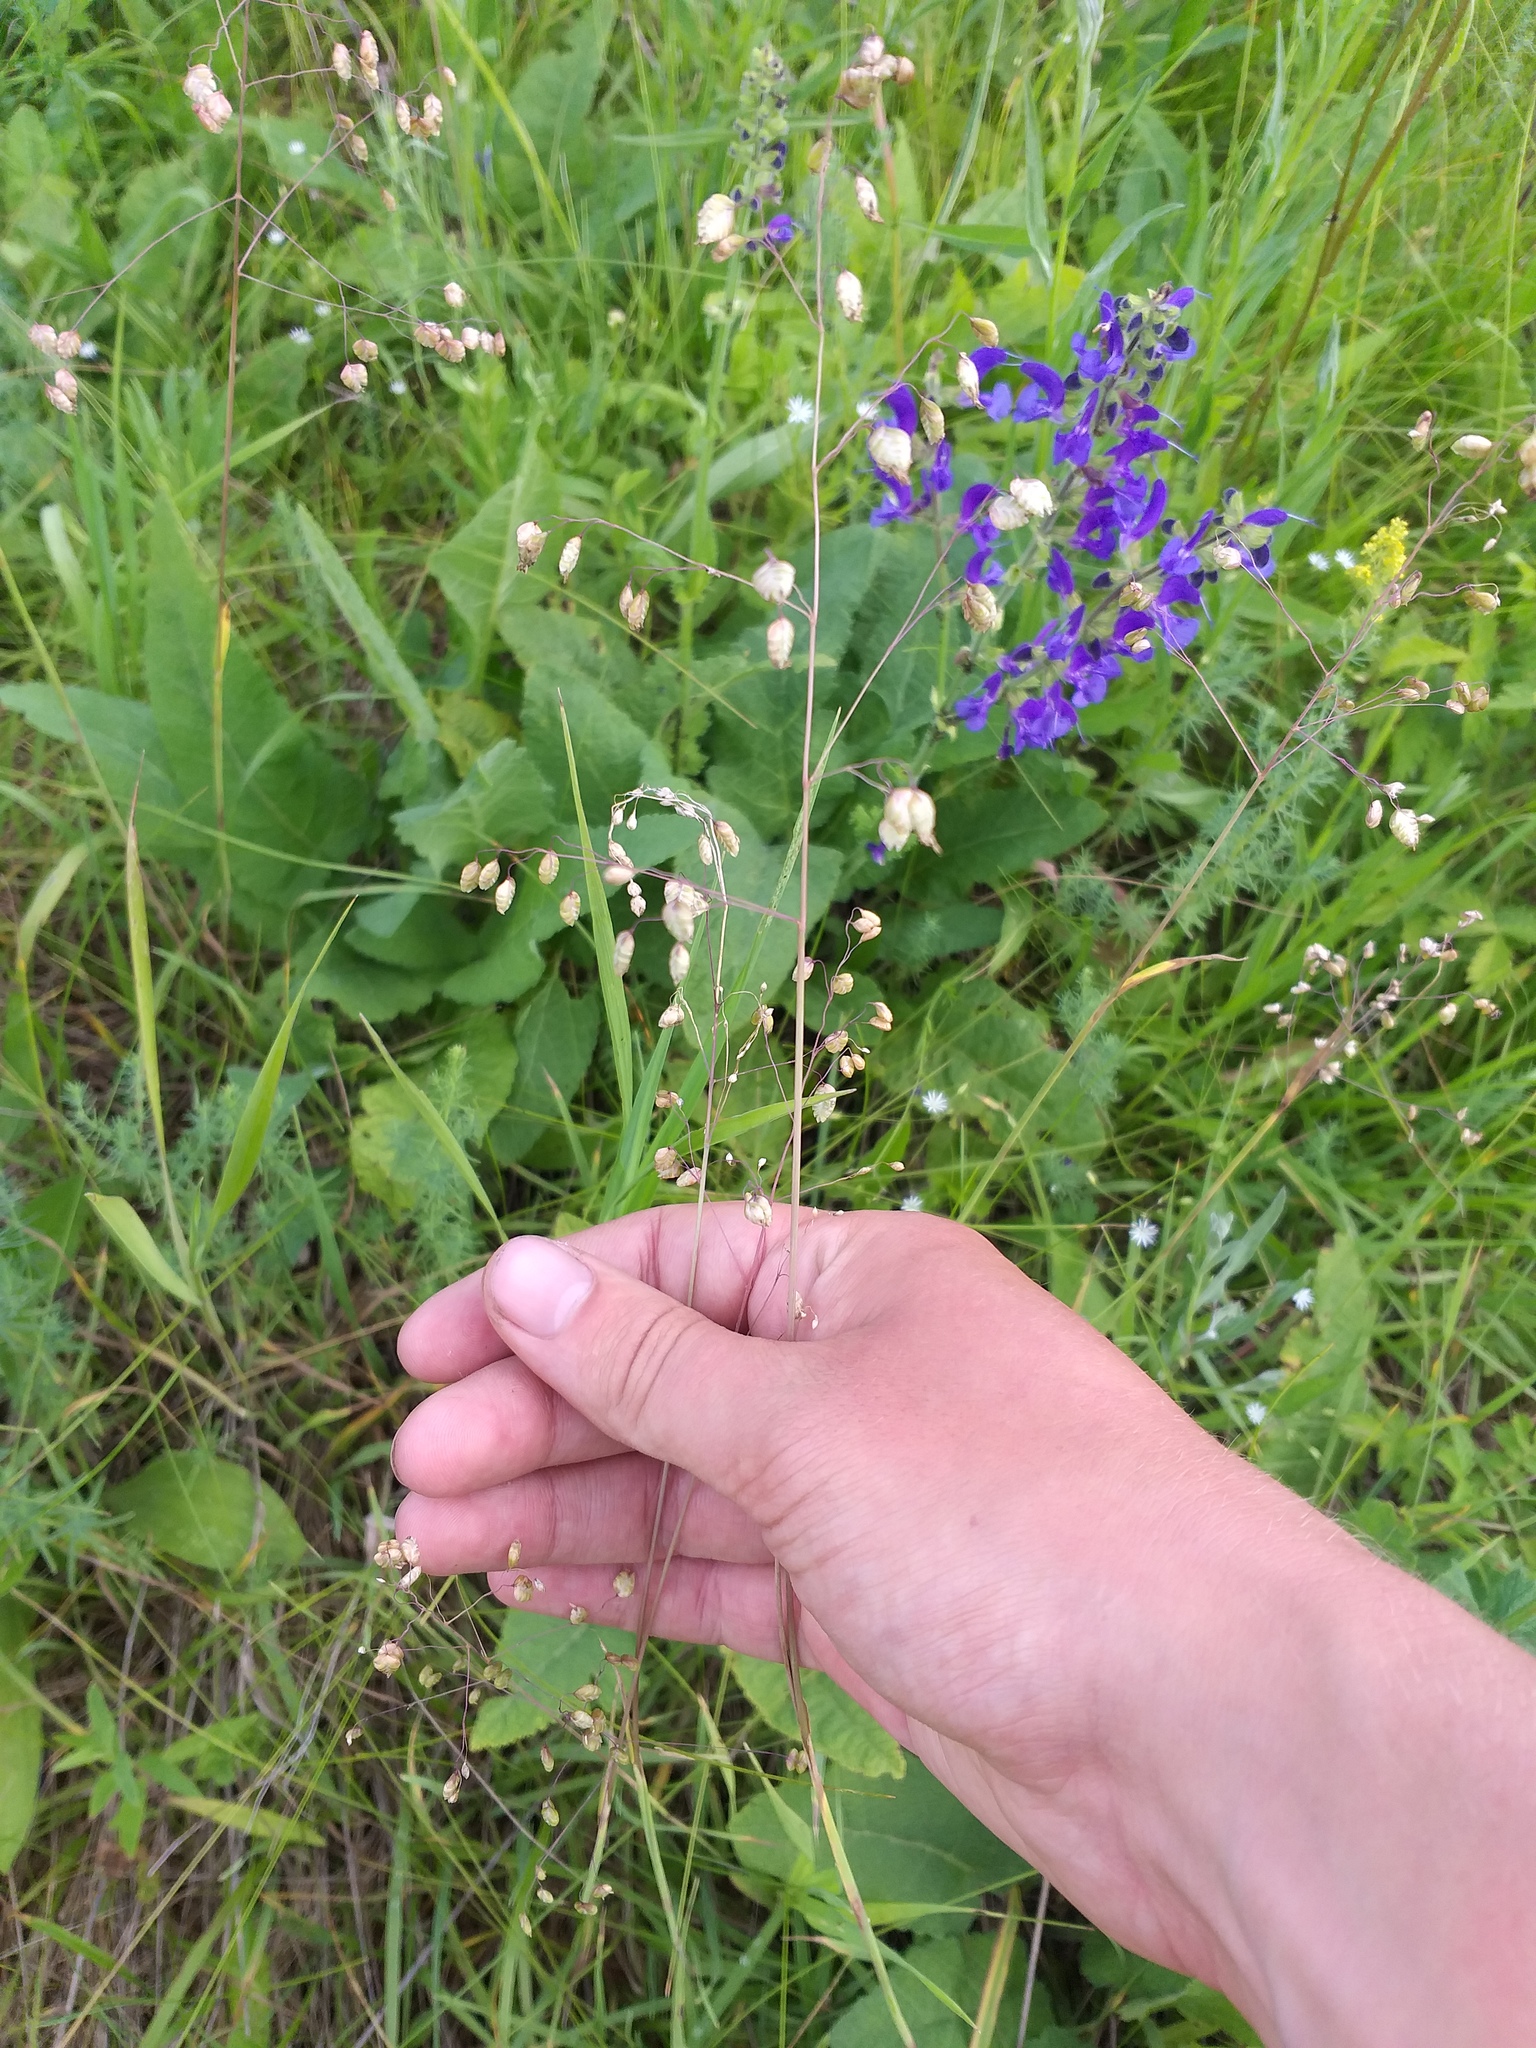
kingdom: Plantae
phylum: Tracheophyta
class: Liliopsida
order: Poales
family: Poaceae
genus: Briza
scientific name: Briza media
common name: Quaking grass
